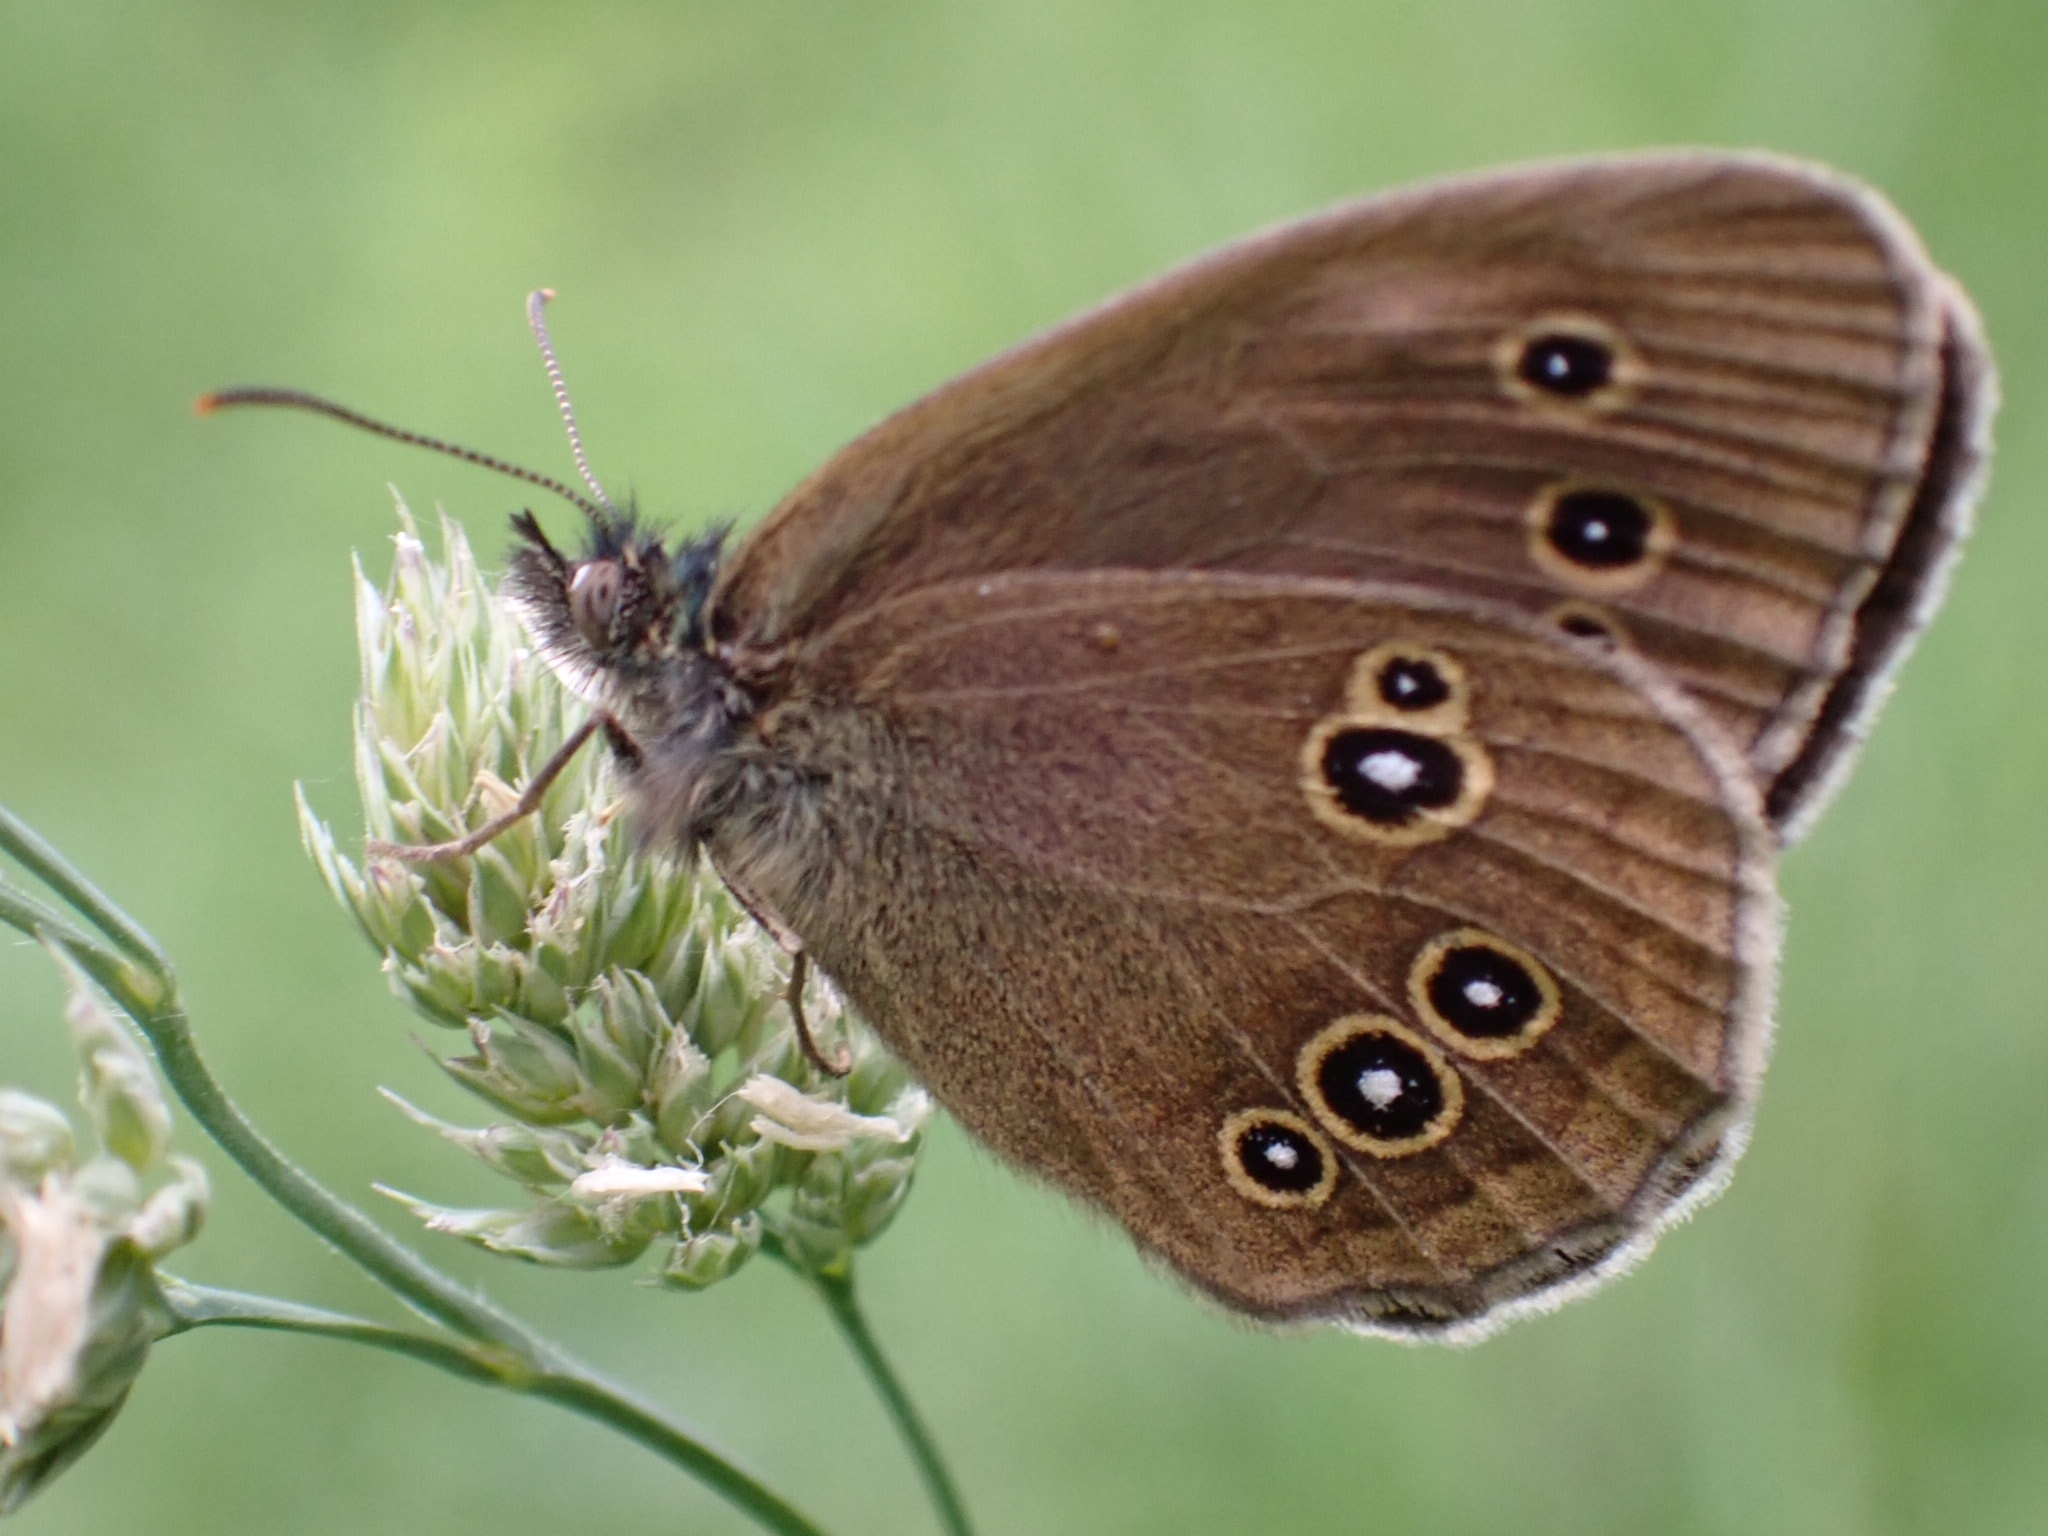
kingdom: Animalia
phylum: Arthropoda
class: Insecta
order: Lepidoptera
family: Nymphalidae
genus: Aphantopus
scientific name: Aphantopus hyperantus
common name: Ringlet
